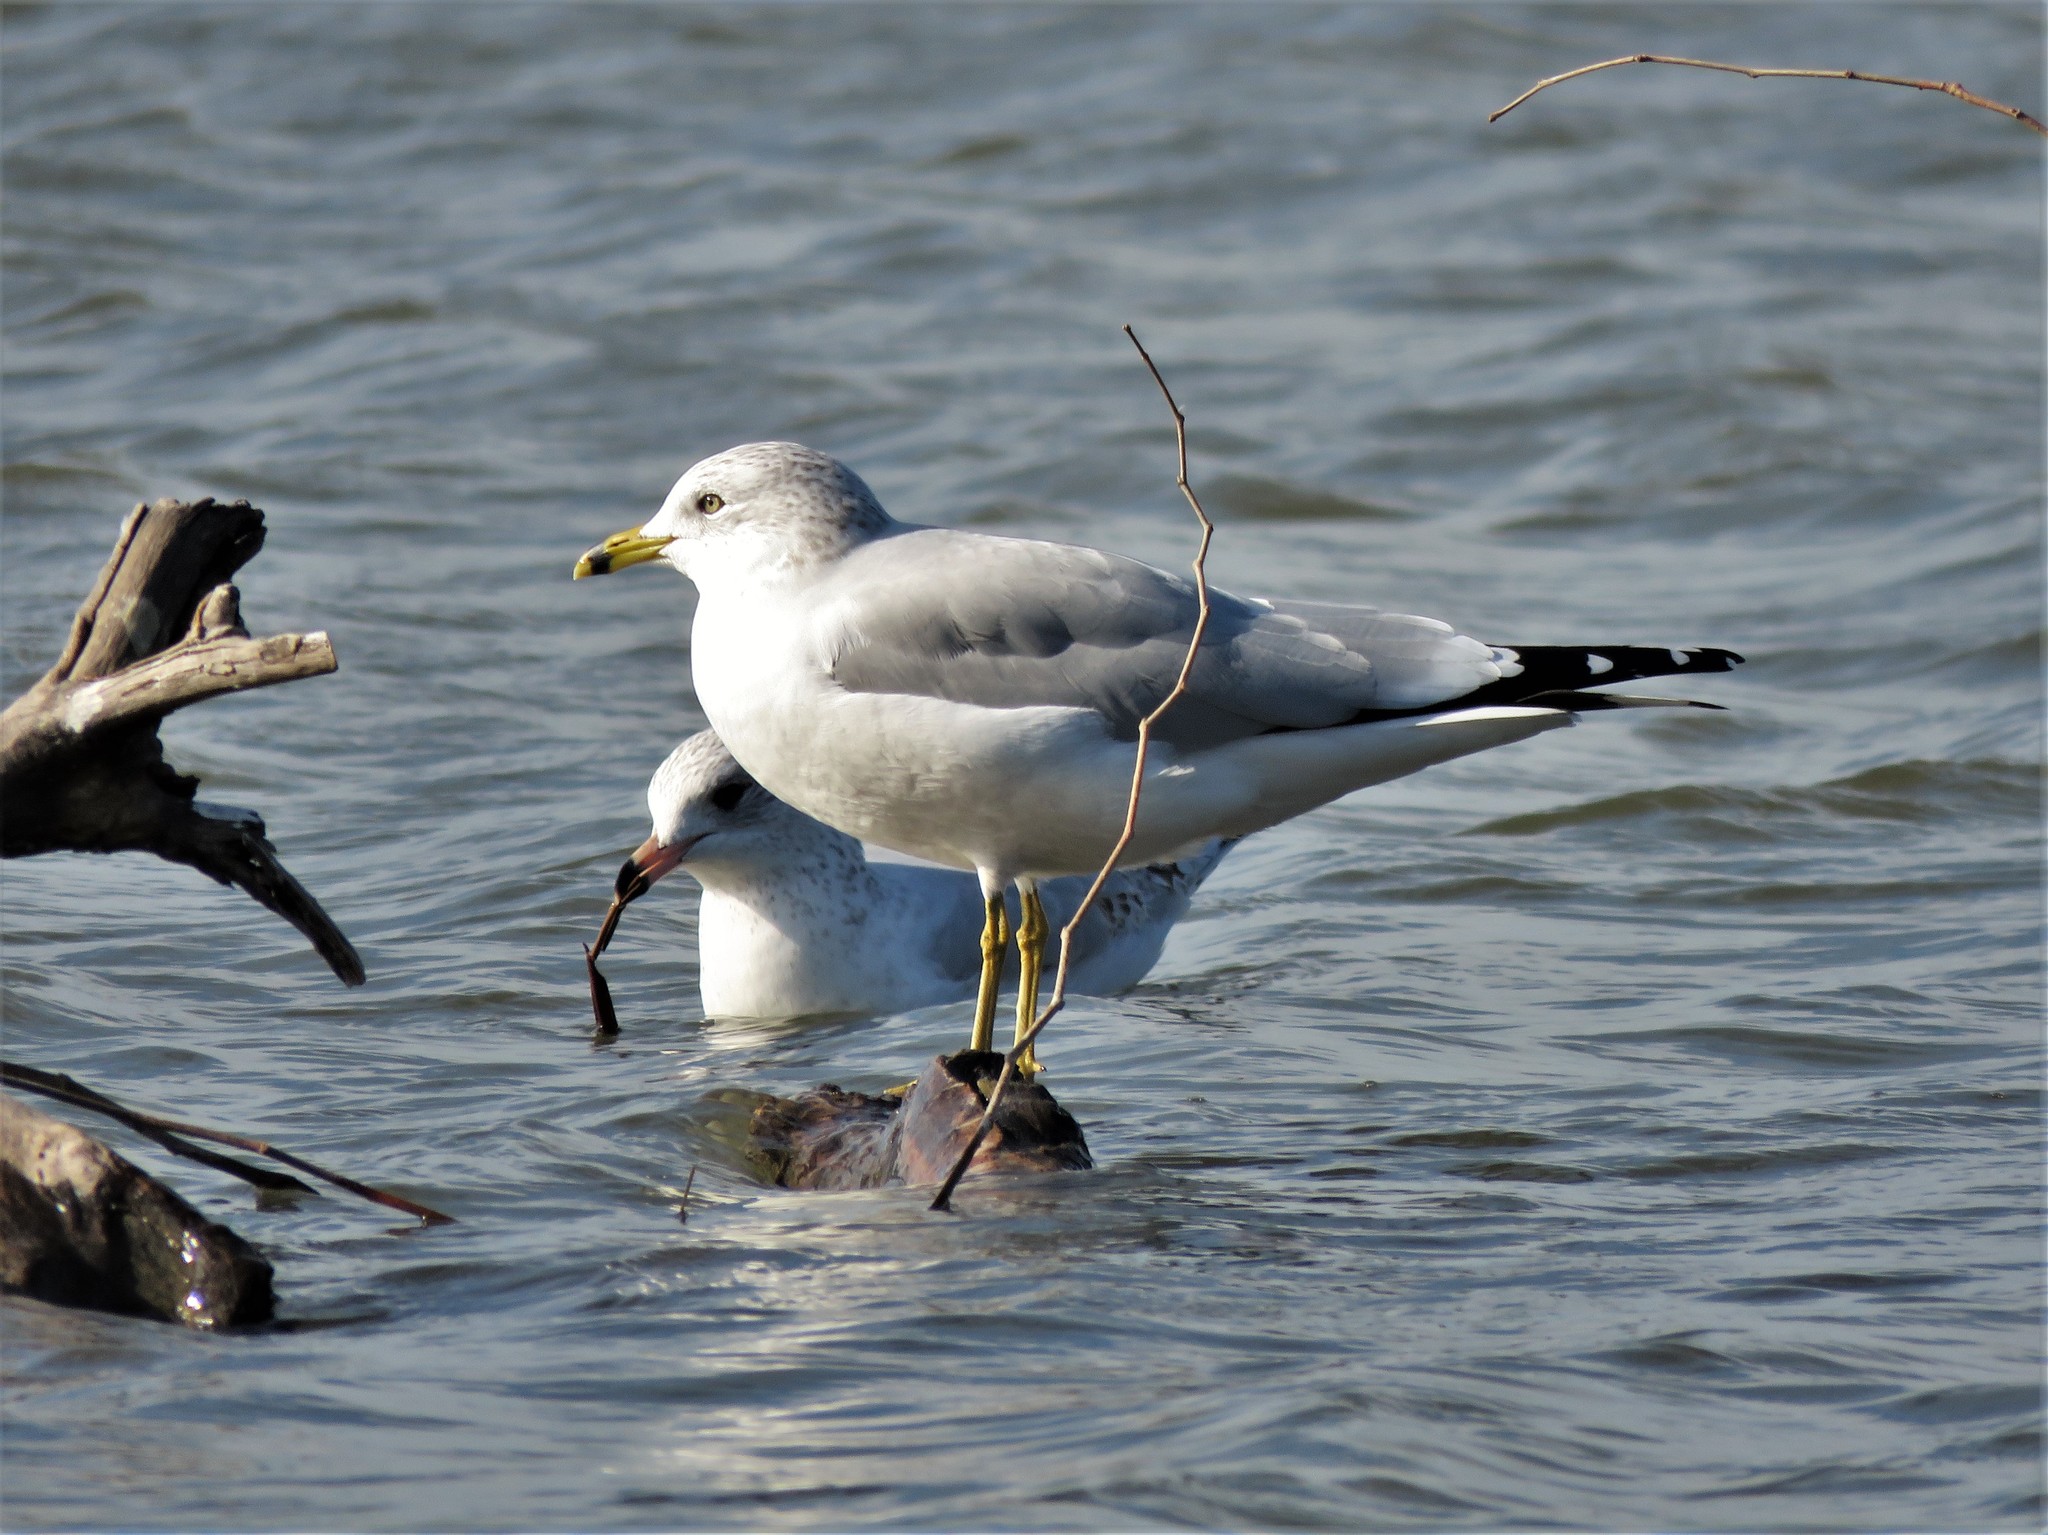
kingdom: Animalia
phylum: Chordata
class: Aves
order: Charadriiformes
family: Laridae
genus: Larus
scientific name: Larus delawarensis
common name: Ring-billed gull
